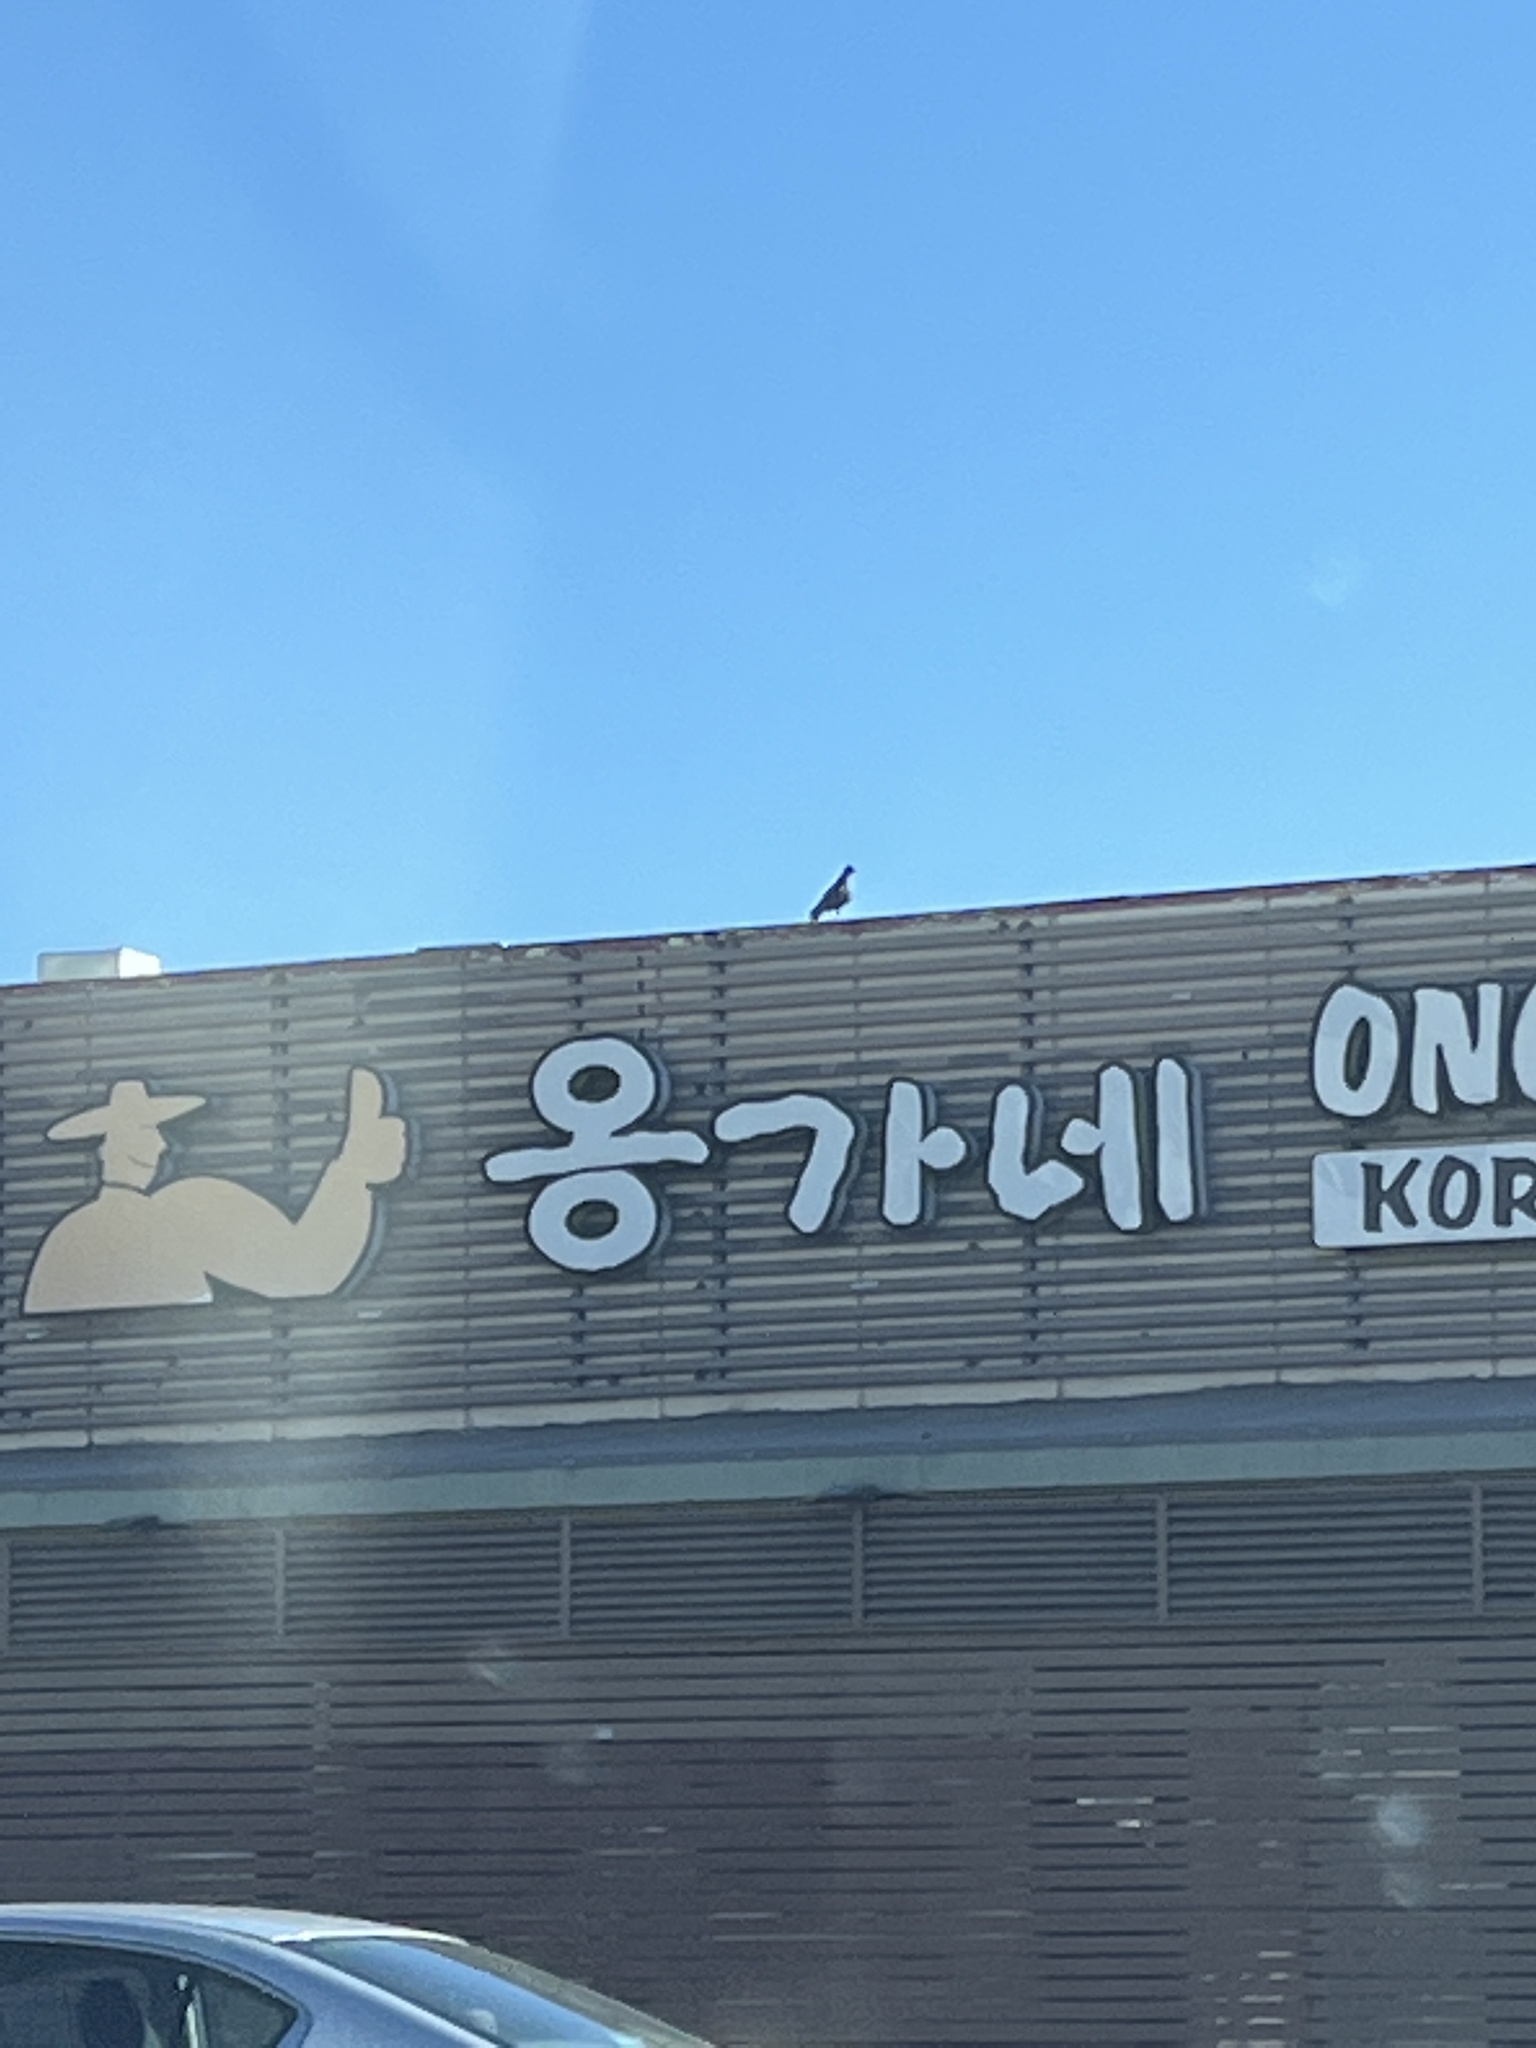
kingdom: Animalia
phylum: Chordata
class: Aves
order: Columbiformes
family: Columbidae
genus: Columba
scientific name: Columba livia
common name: Rock pigeon
